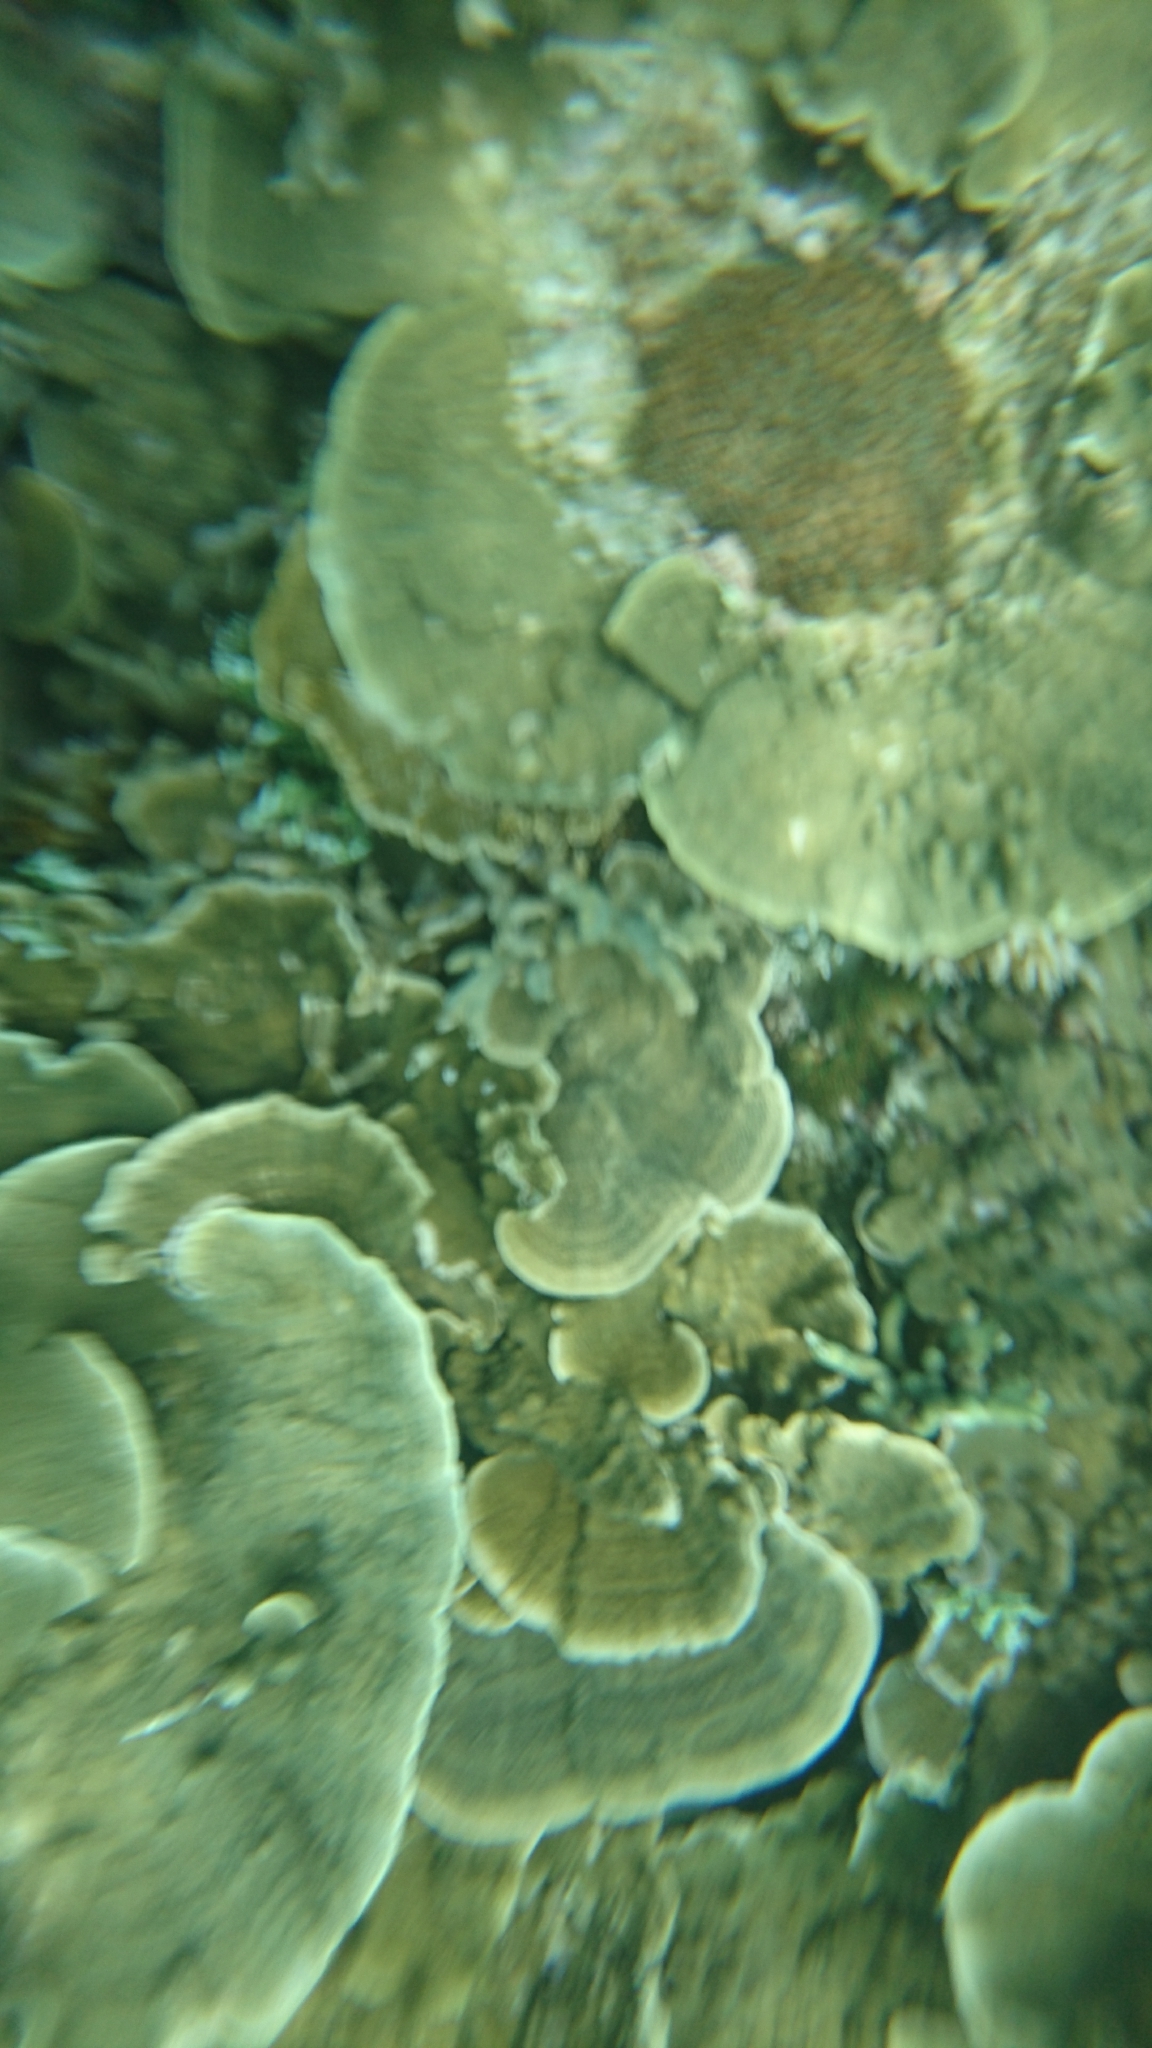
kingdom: Animalia
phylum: Cnidaria
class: Anthozoa
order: Scleractinia
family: Acroporidae
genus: Montipora
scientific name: Montipora
